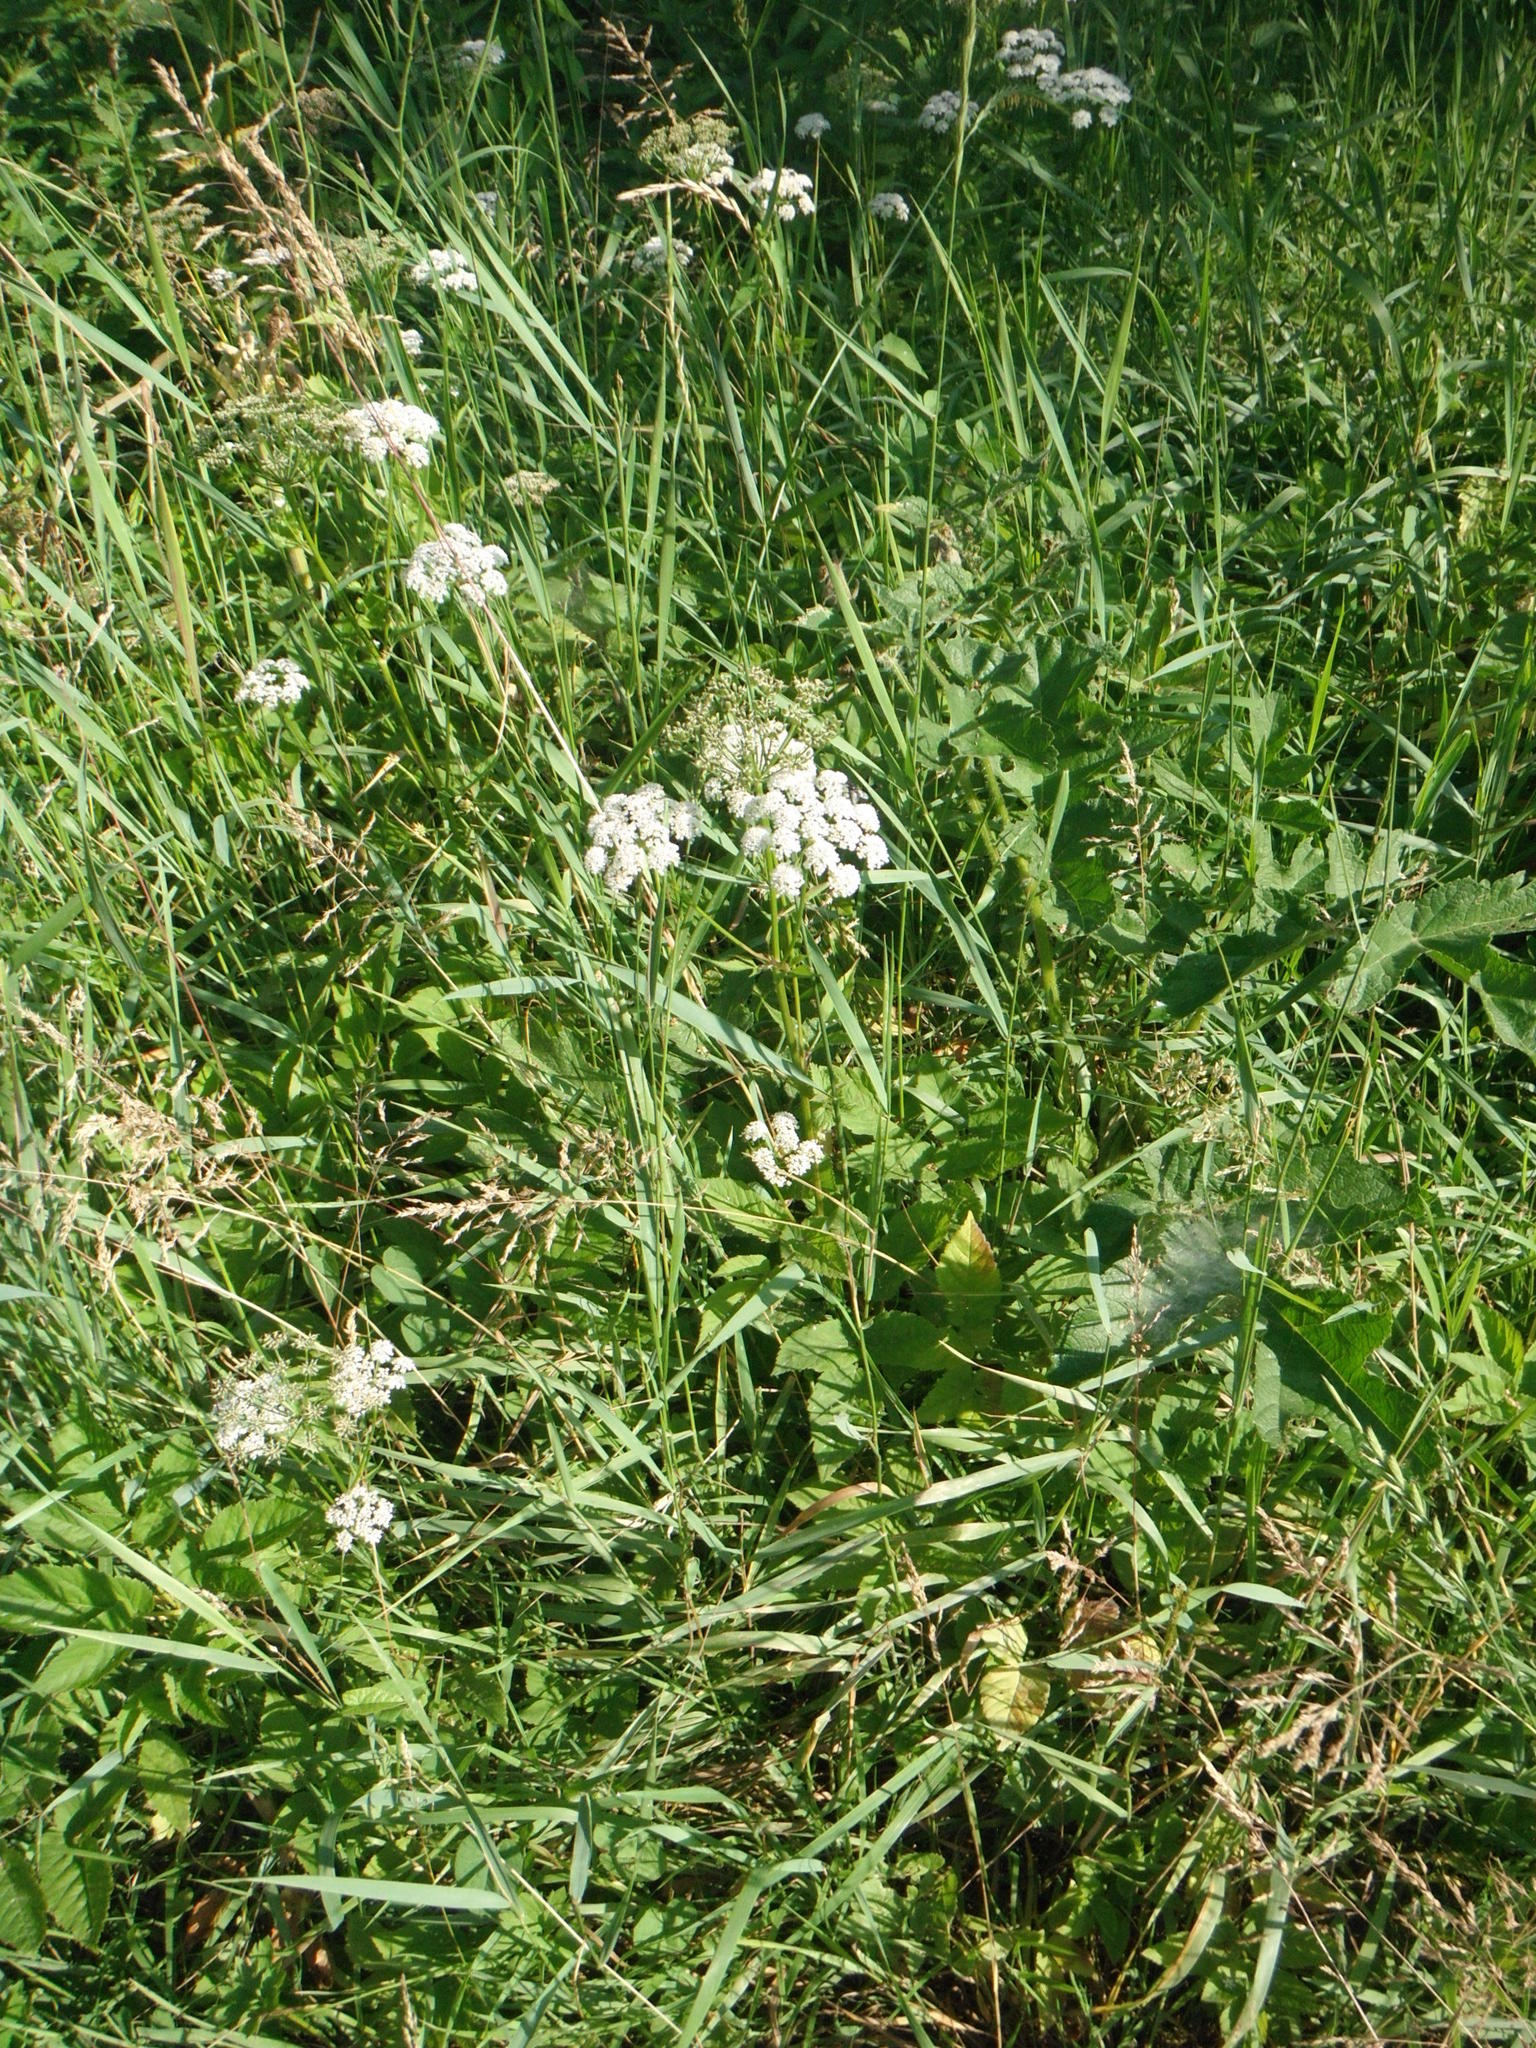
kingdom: Plantae
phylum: Tracheophyta
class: Magnoliopsida
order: Apiales
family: Apiaceae
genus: Aegopodium
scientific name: Aegopodium podagraria
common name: Ground-elder
